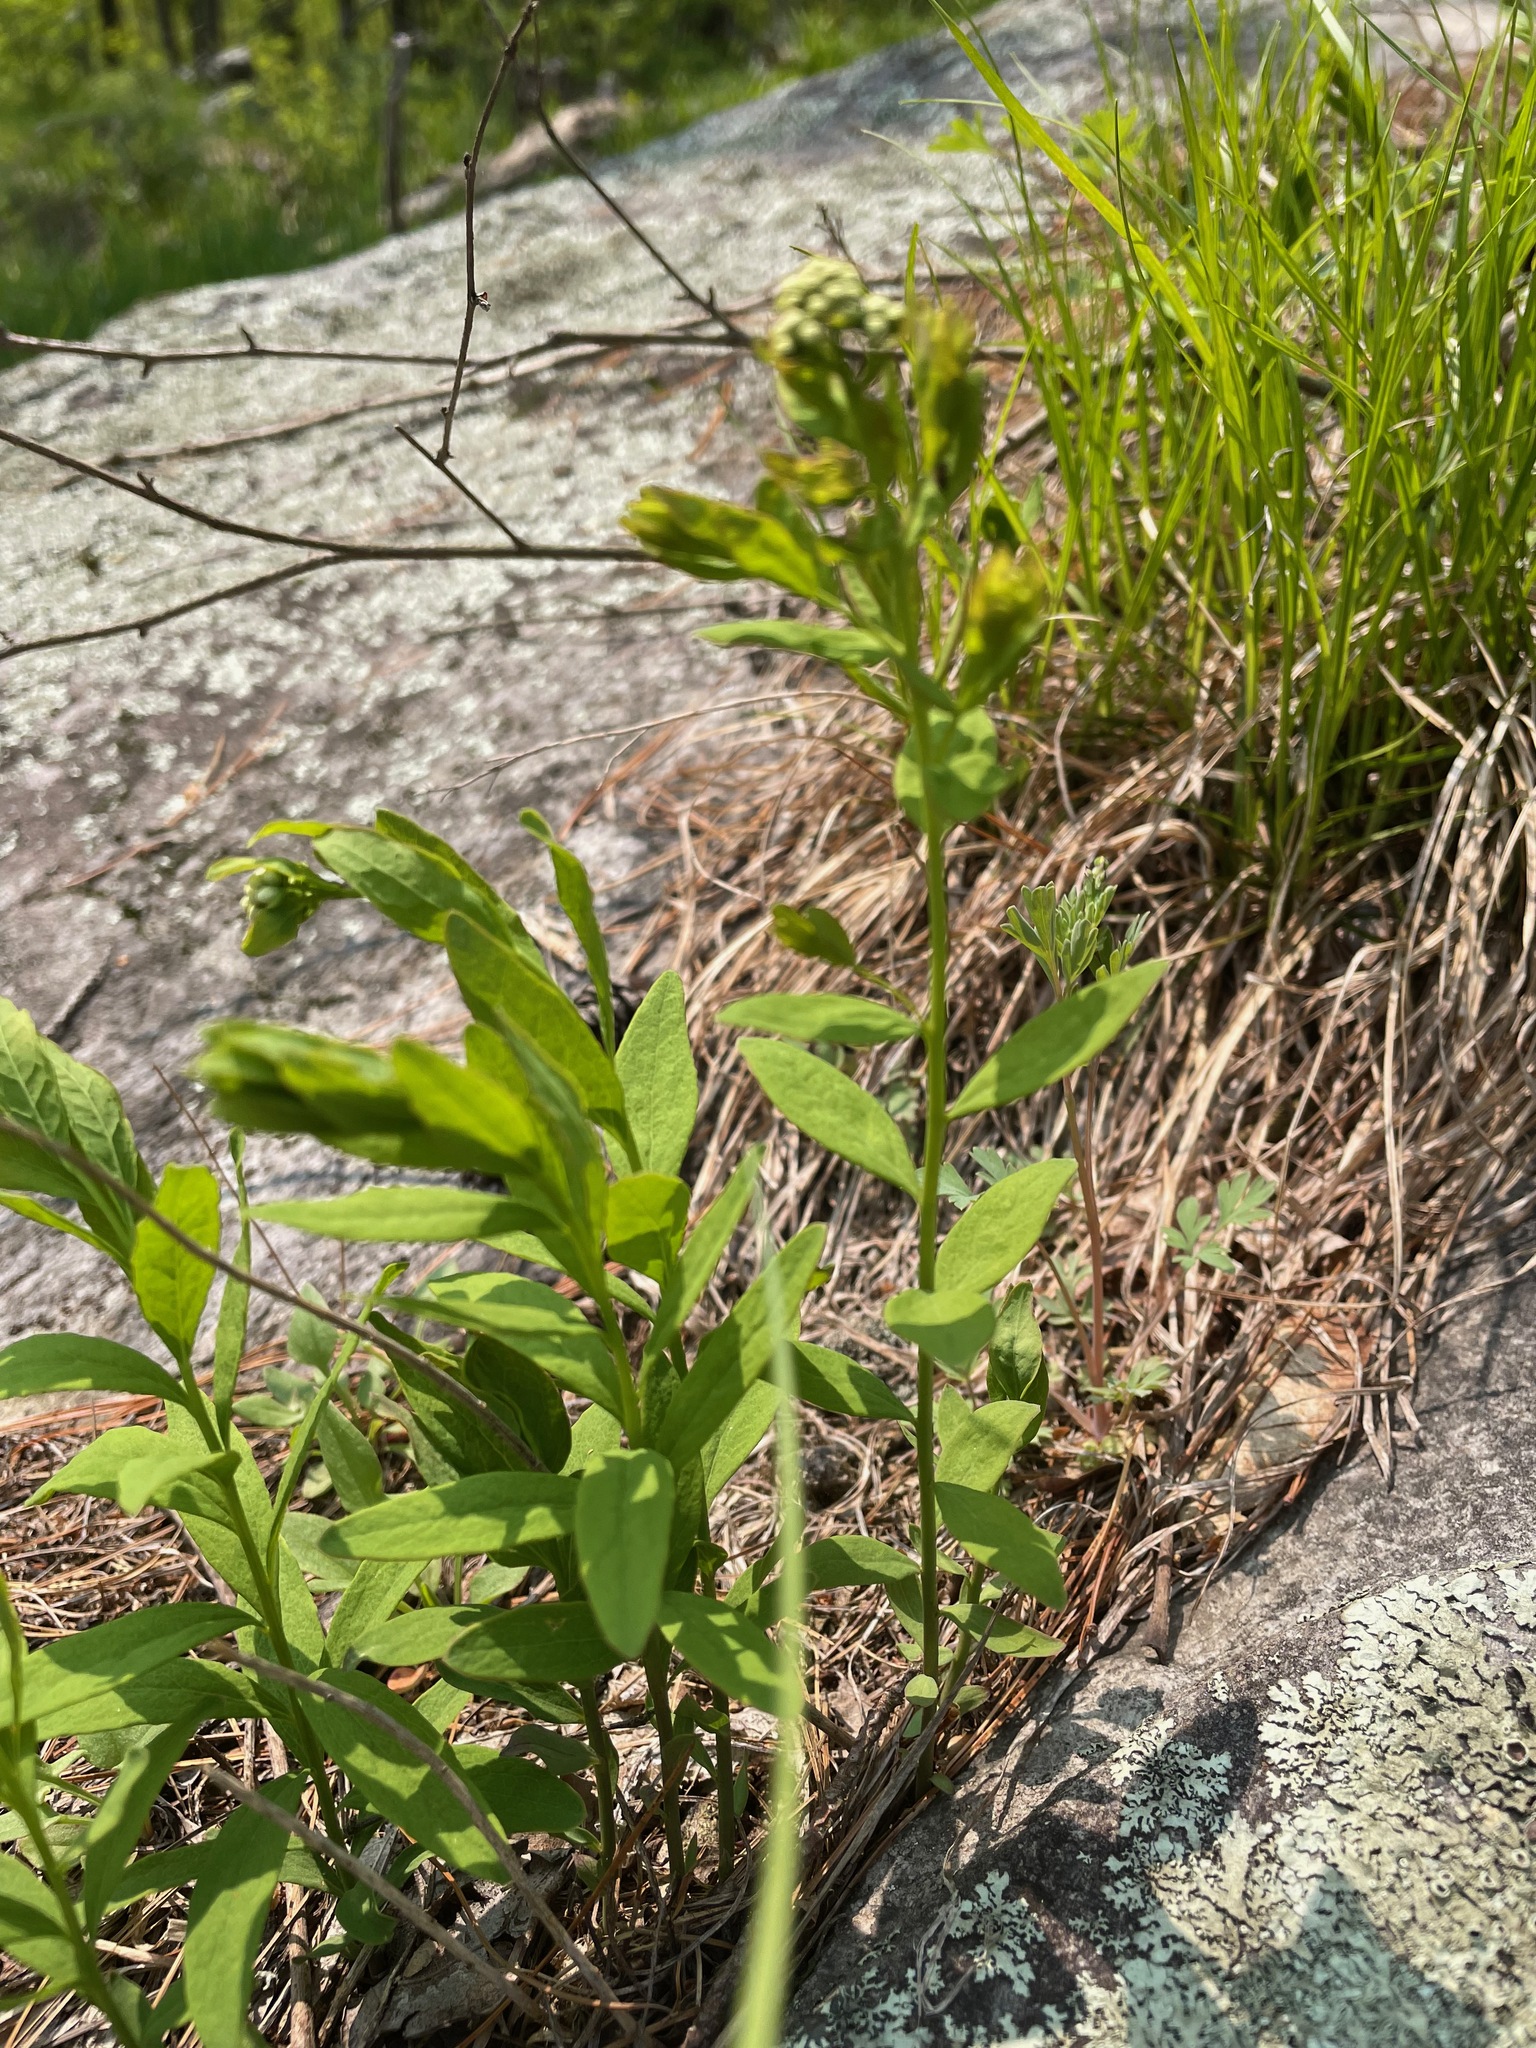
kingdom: Plantae
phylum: Tracheophyta
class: Magnoliopsida
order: Santalales
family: Comandraceae
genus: Comandra
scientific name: Comandra umbellata
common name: Bastard toadflax
